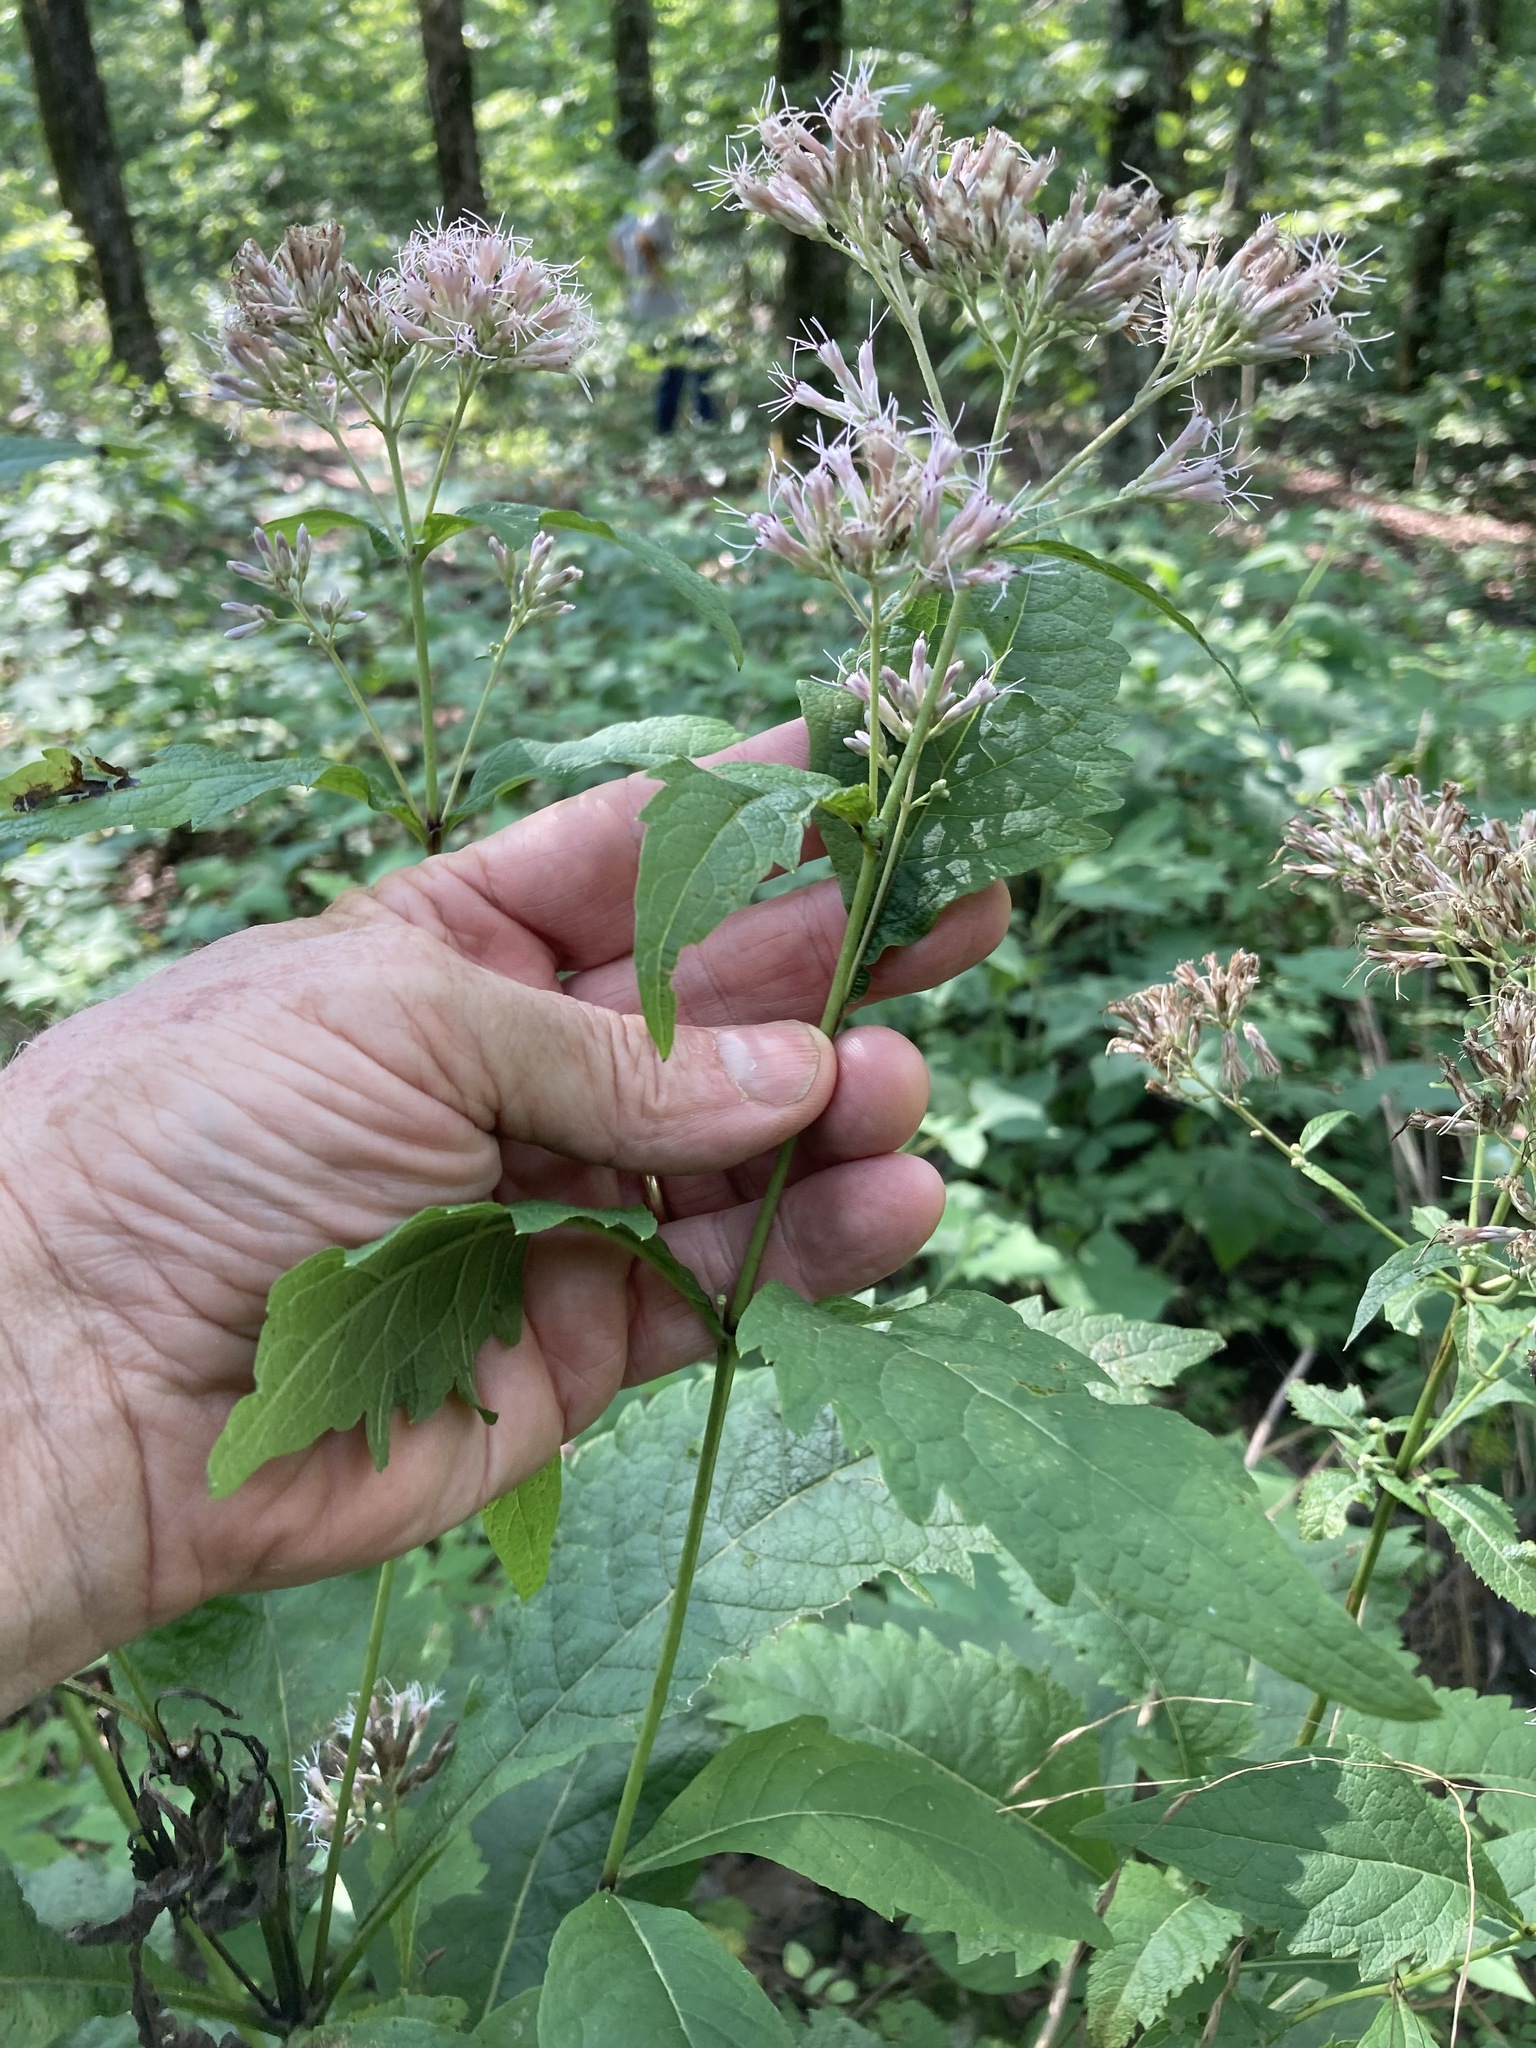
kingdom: Plantae
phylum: Tracheophyta
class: Magnoliopsida
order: Asterales
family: Asteraceae
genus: Eutrochium
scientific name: Eutrochium purpureum
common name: Gravelroot
